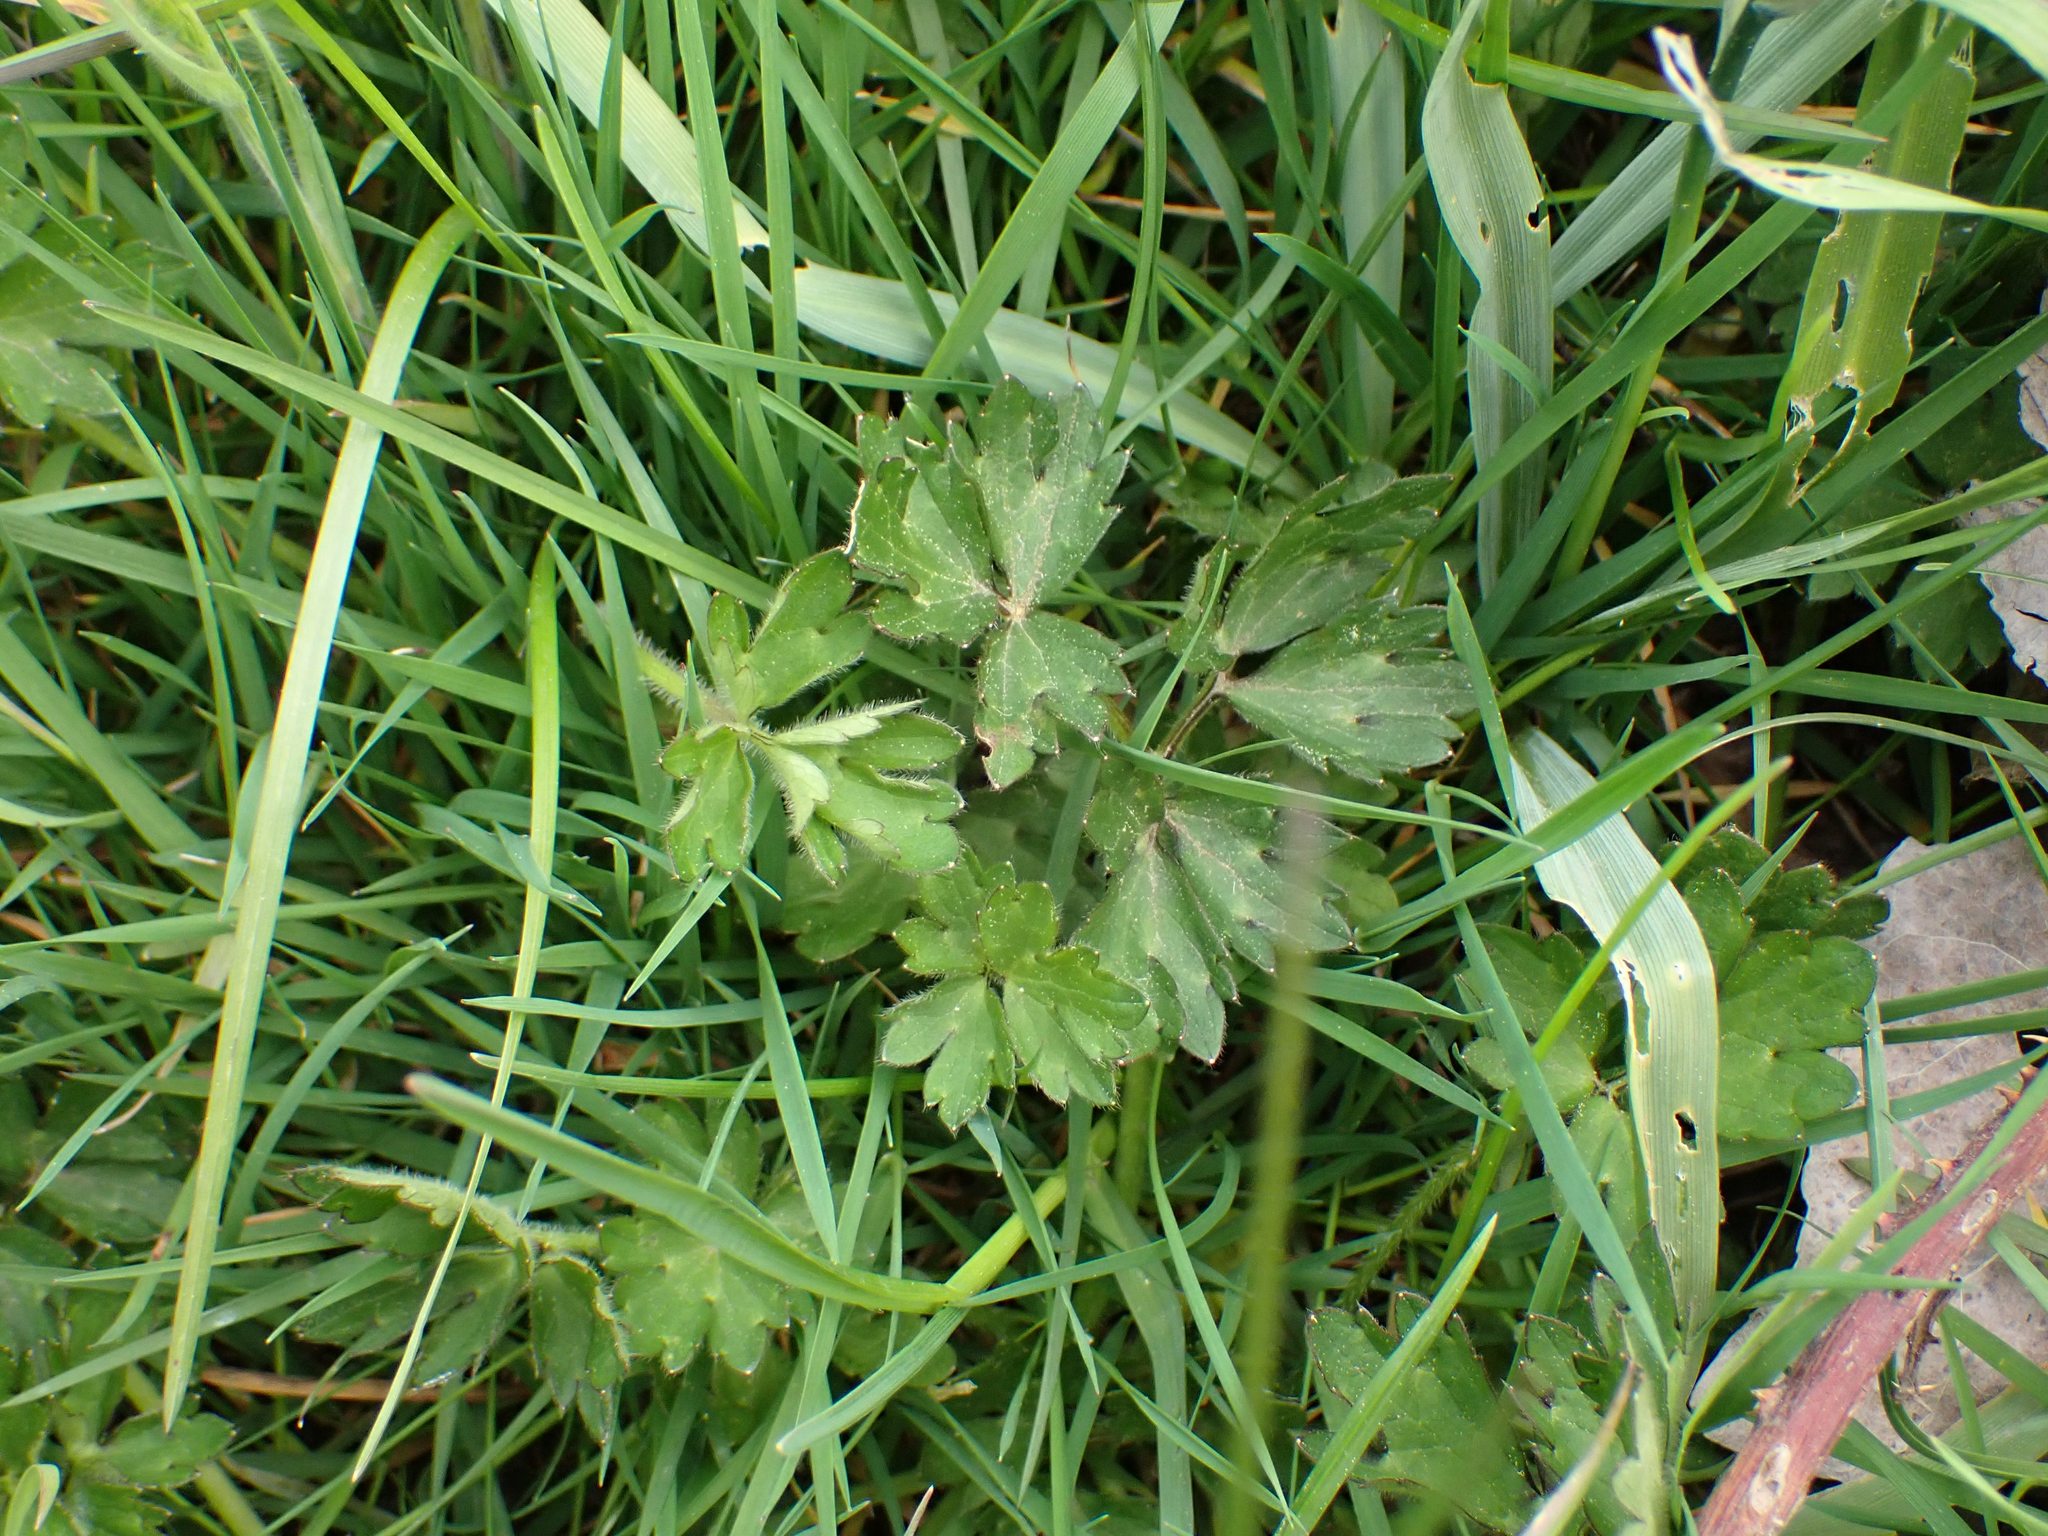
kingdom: Plantae
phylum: Tracheophyta
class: Magnoliopsida
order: Ranunculales
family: Ranunculaceae
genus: Ranunculus
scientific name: Ranunculus repens
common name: Creeping buttercup
